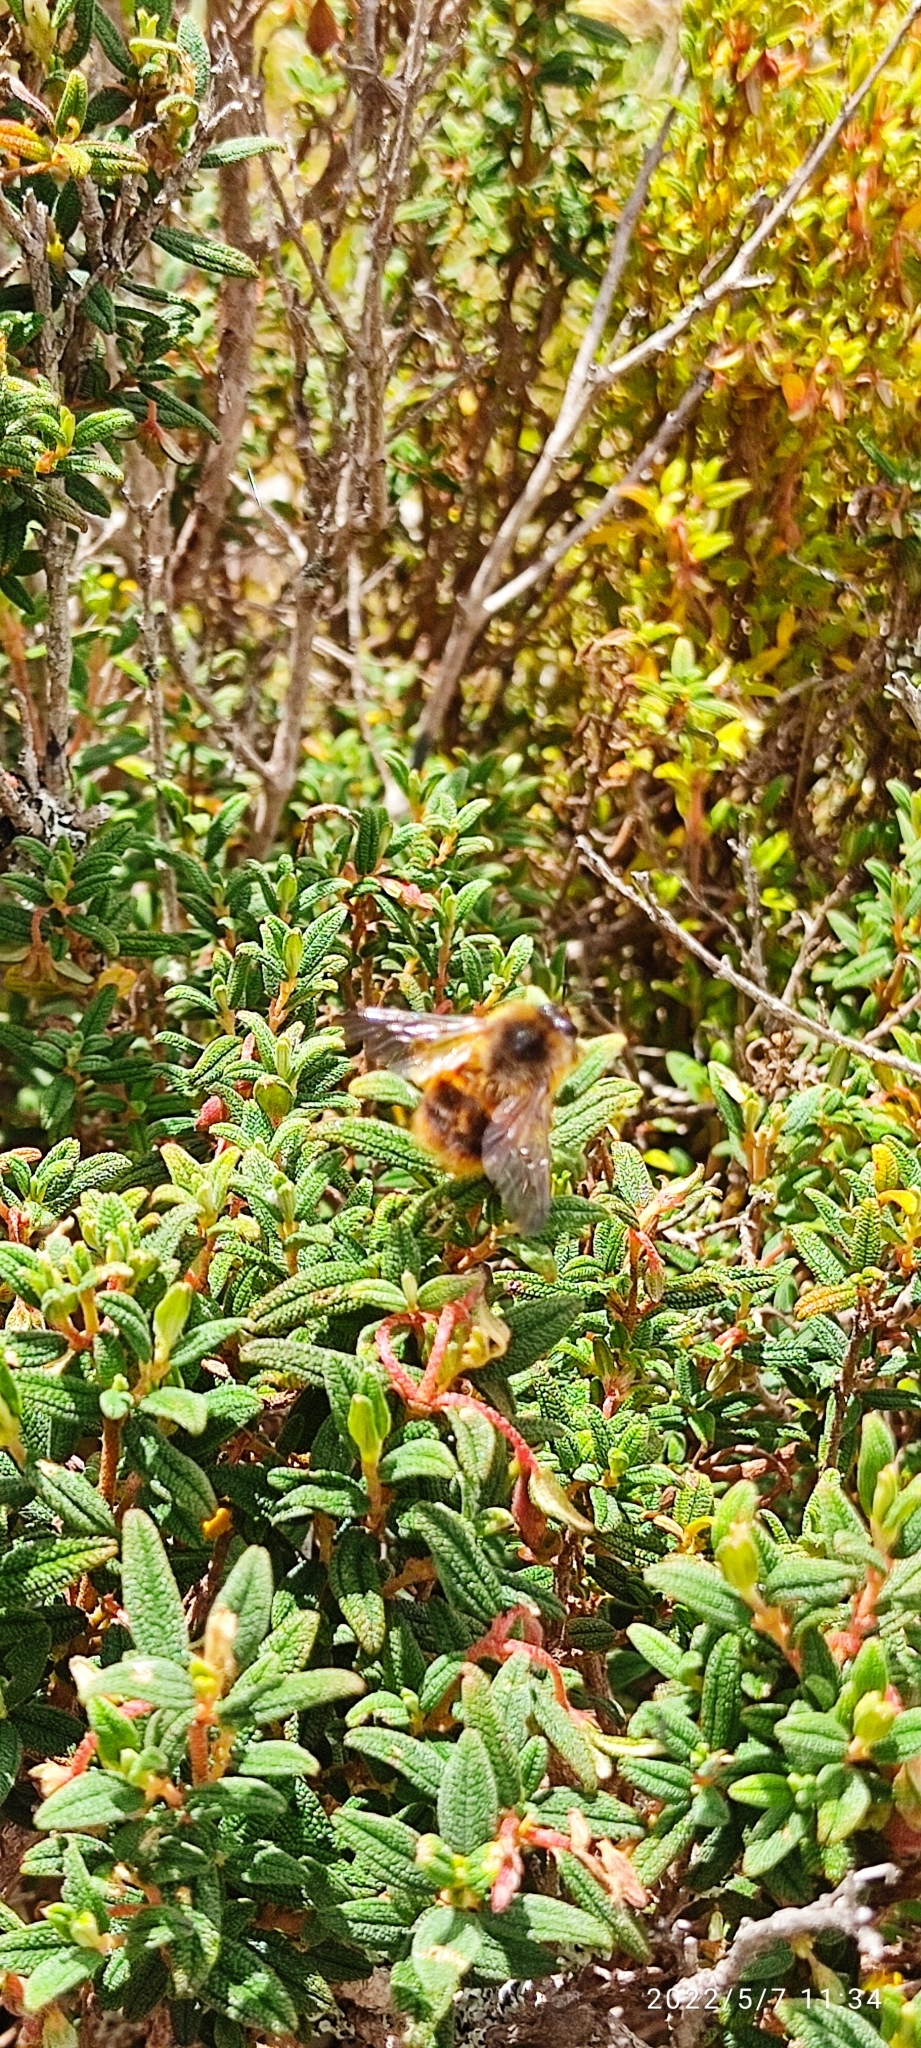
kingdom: Animalia
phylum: Arthropoda
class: Insecta
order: Hymenoptera
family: Apidae
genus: Bombus
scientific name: Bombus handlirschi
